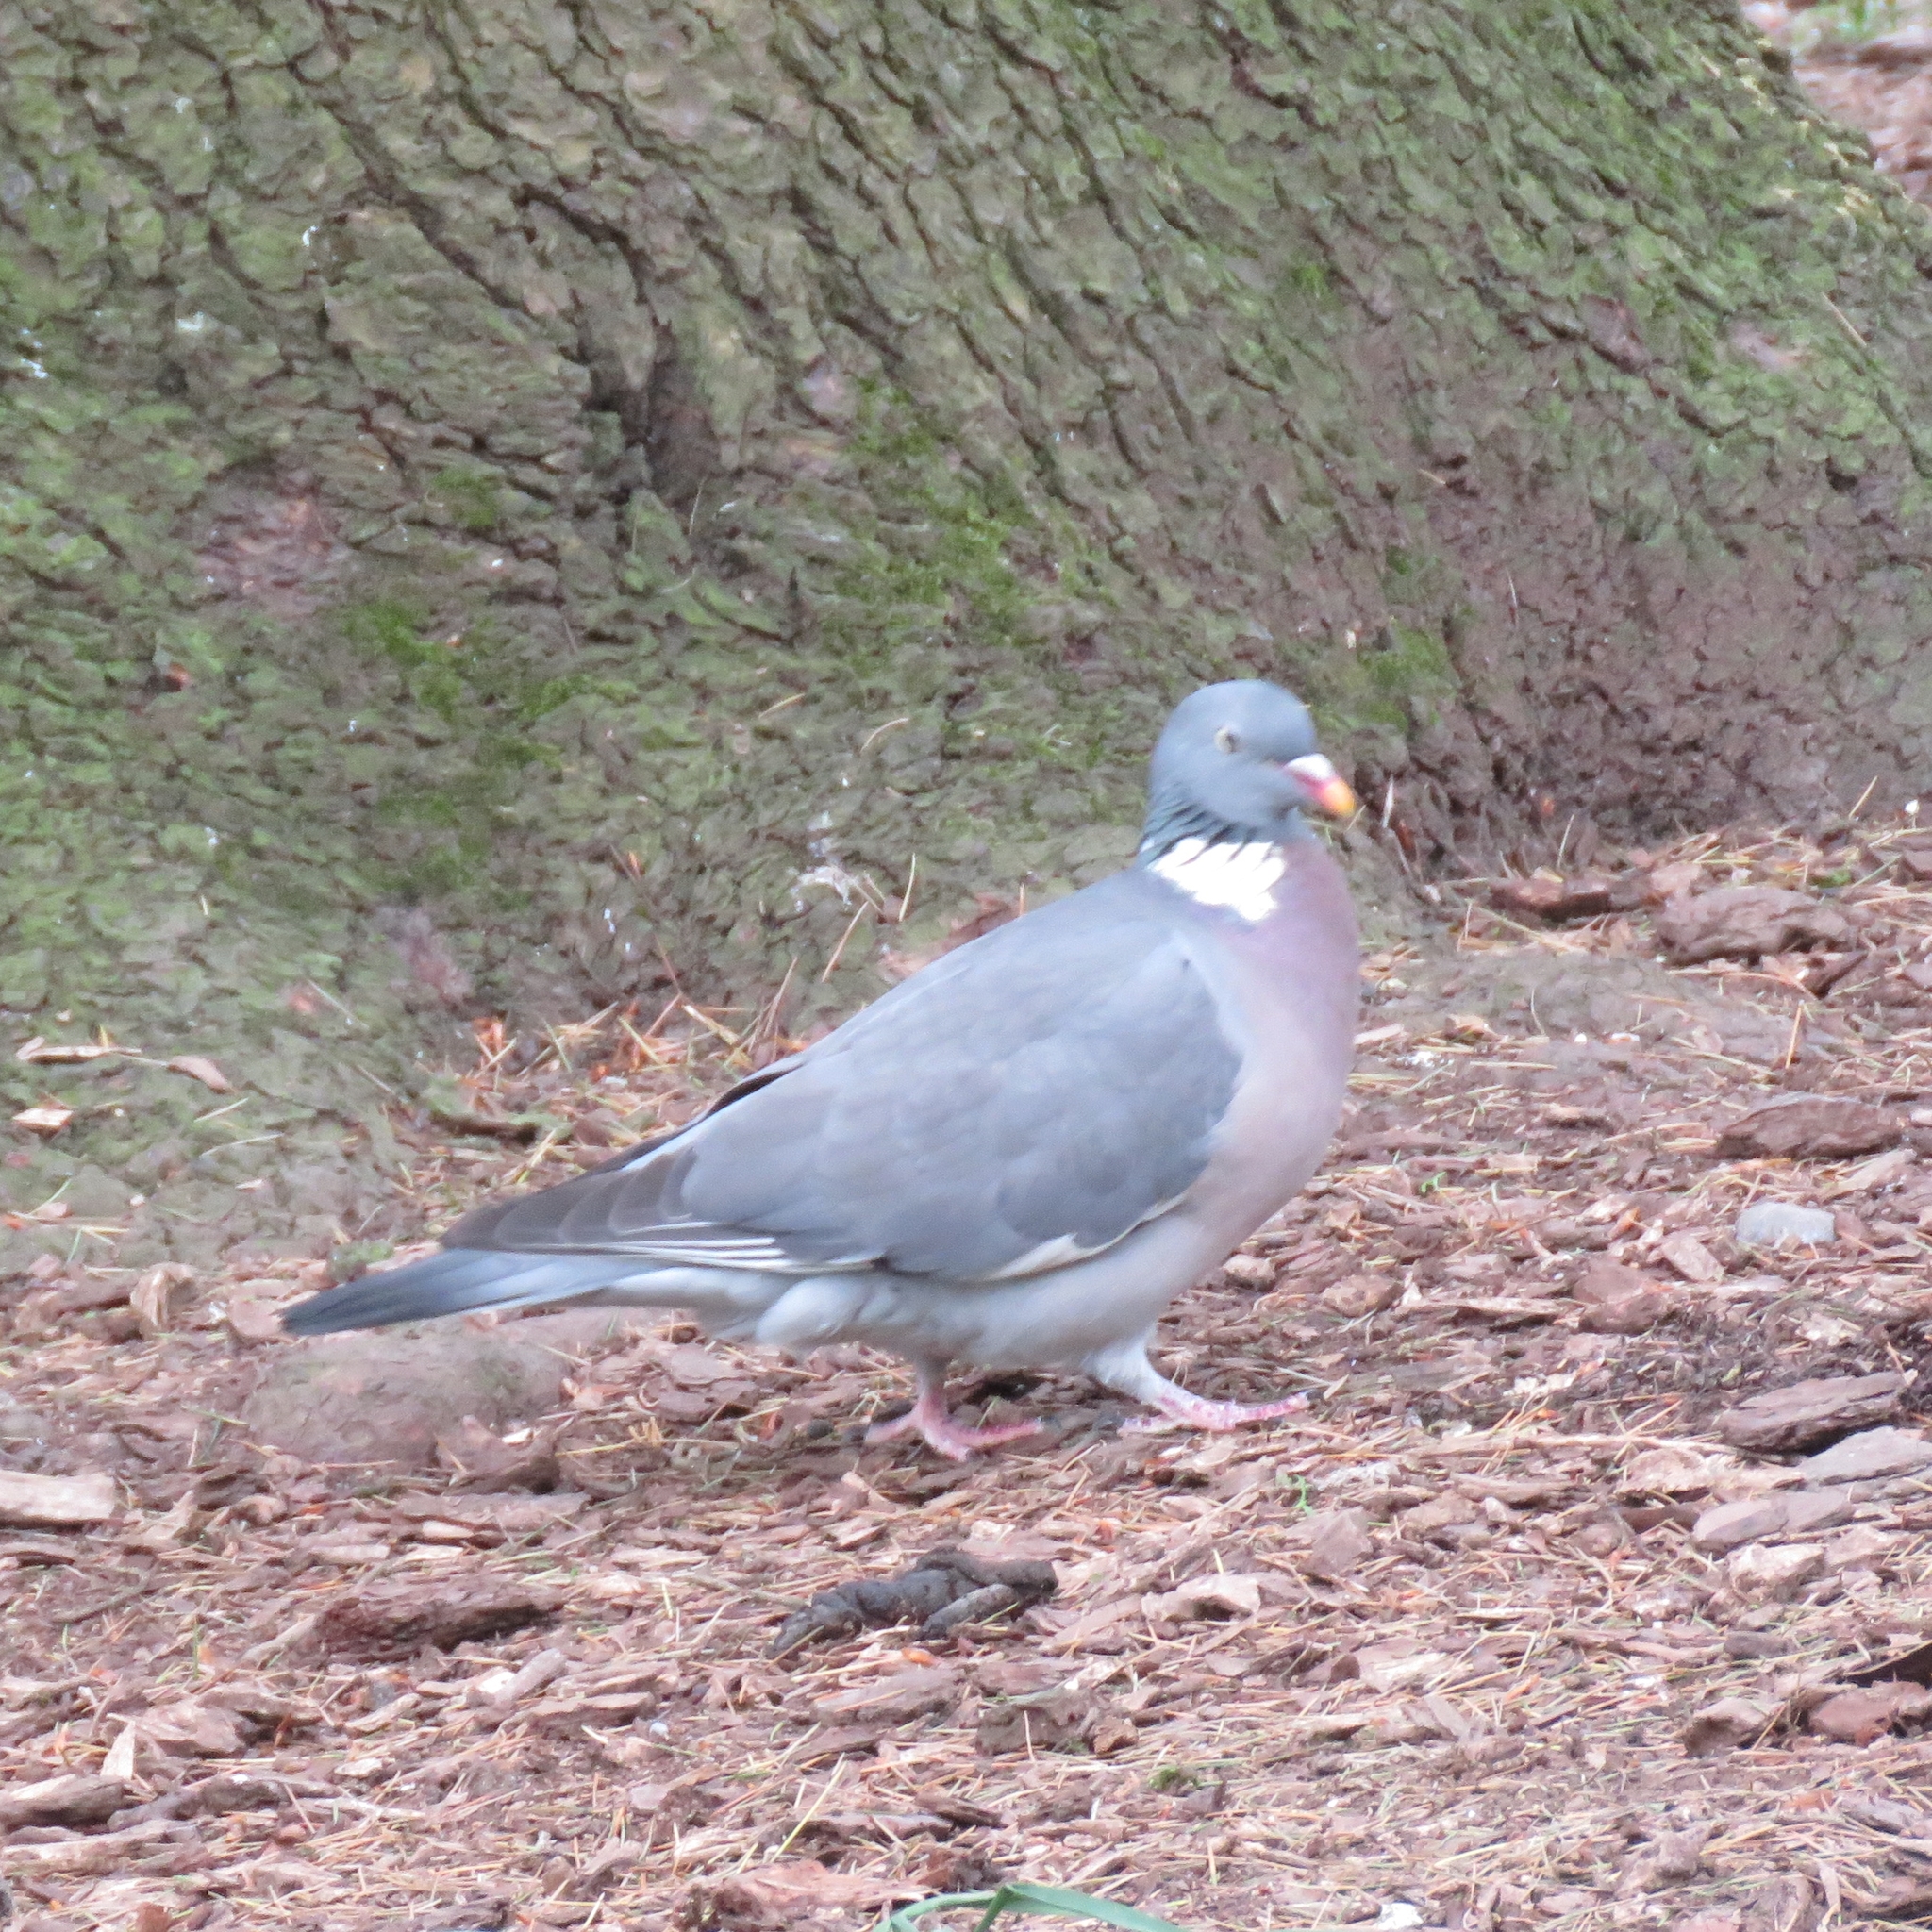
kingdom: Animalia
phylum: Chordata
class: Aves
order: Columbiformes
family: Columbidae
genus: Columba
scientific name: Columba palumbus
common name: Common wood pigeon
